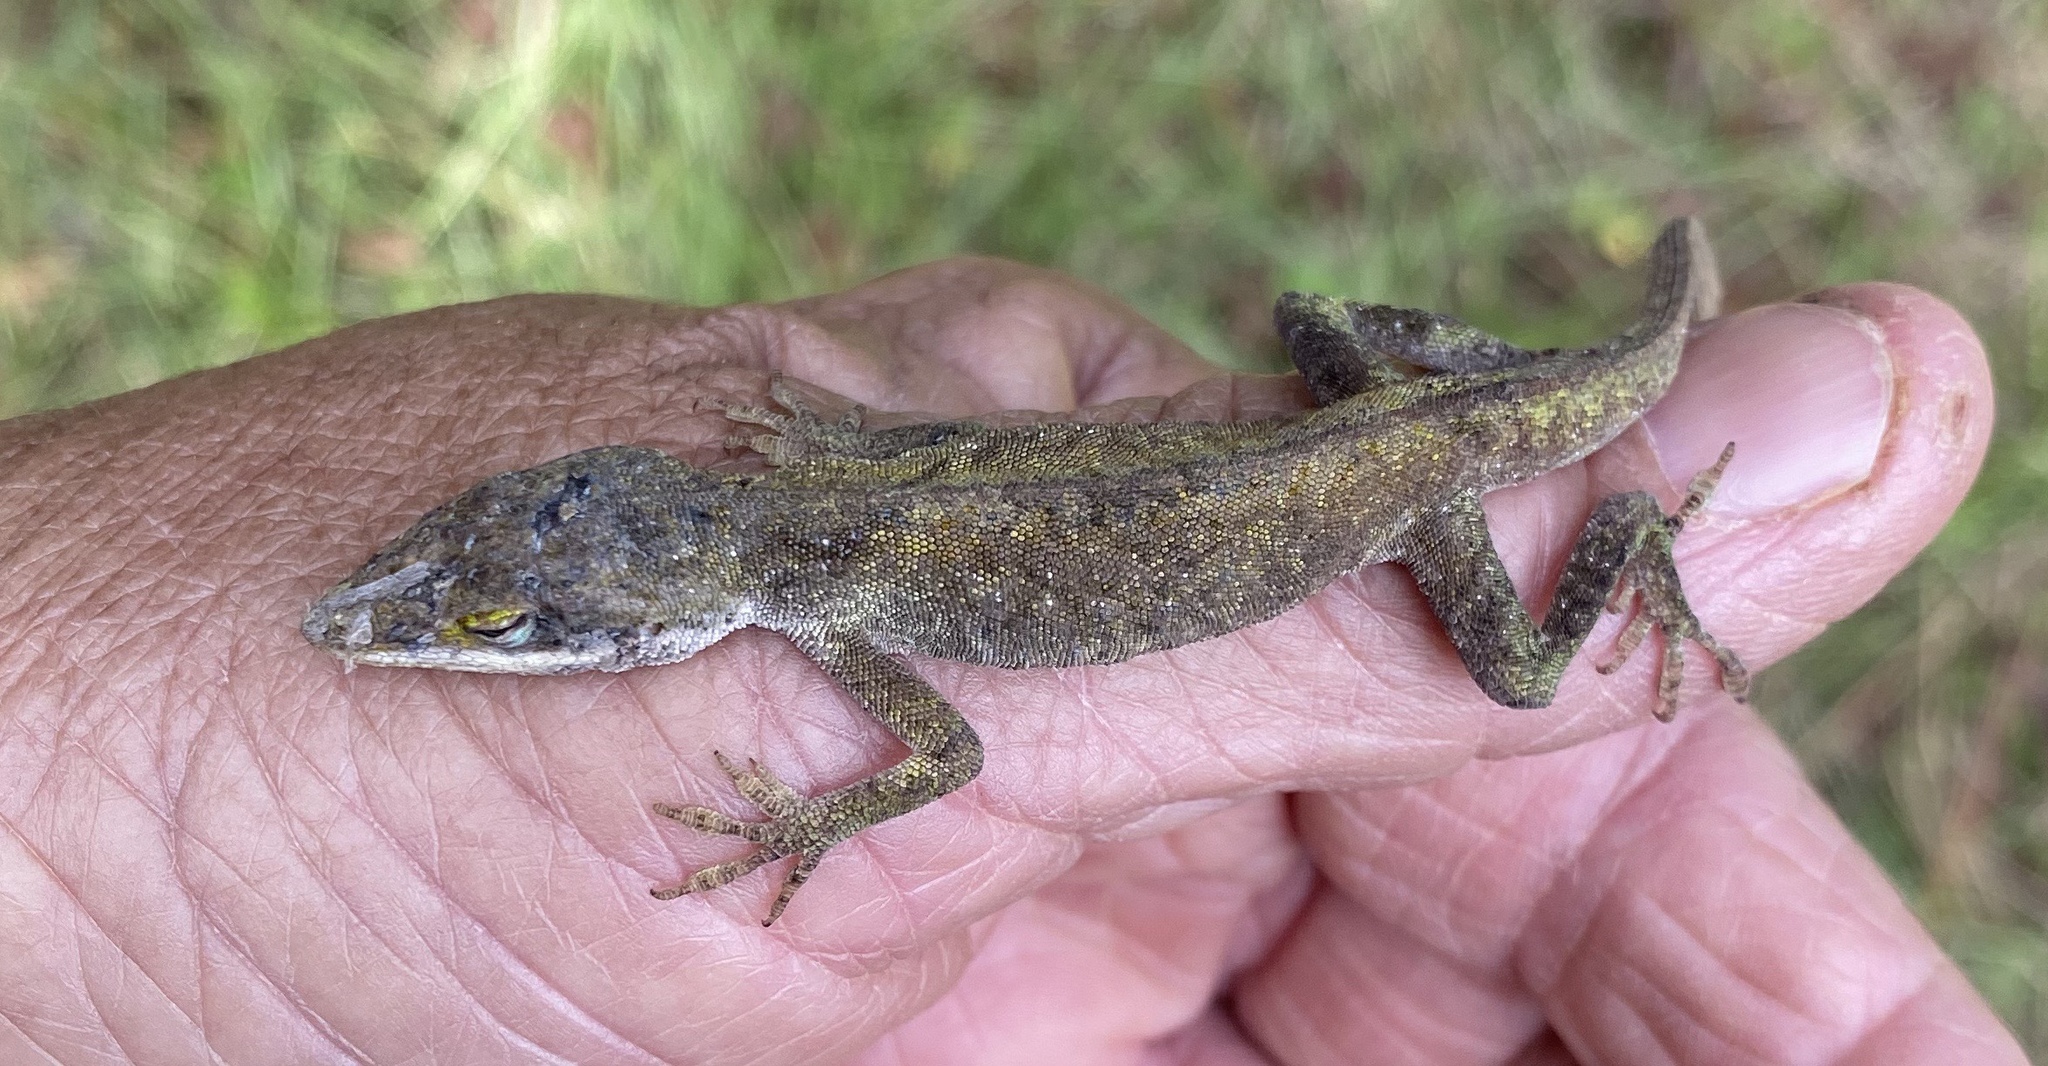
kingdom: Animalia
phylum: Chordata
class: Squamata
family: Dactyloidae
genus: Anolis
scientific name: Anolis carolinensis
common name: Green anole
